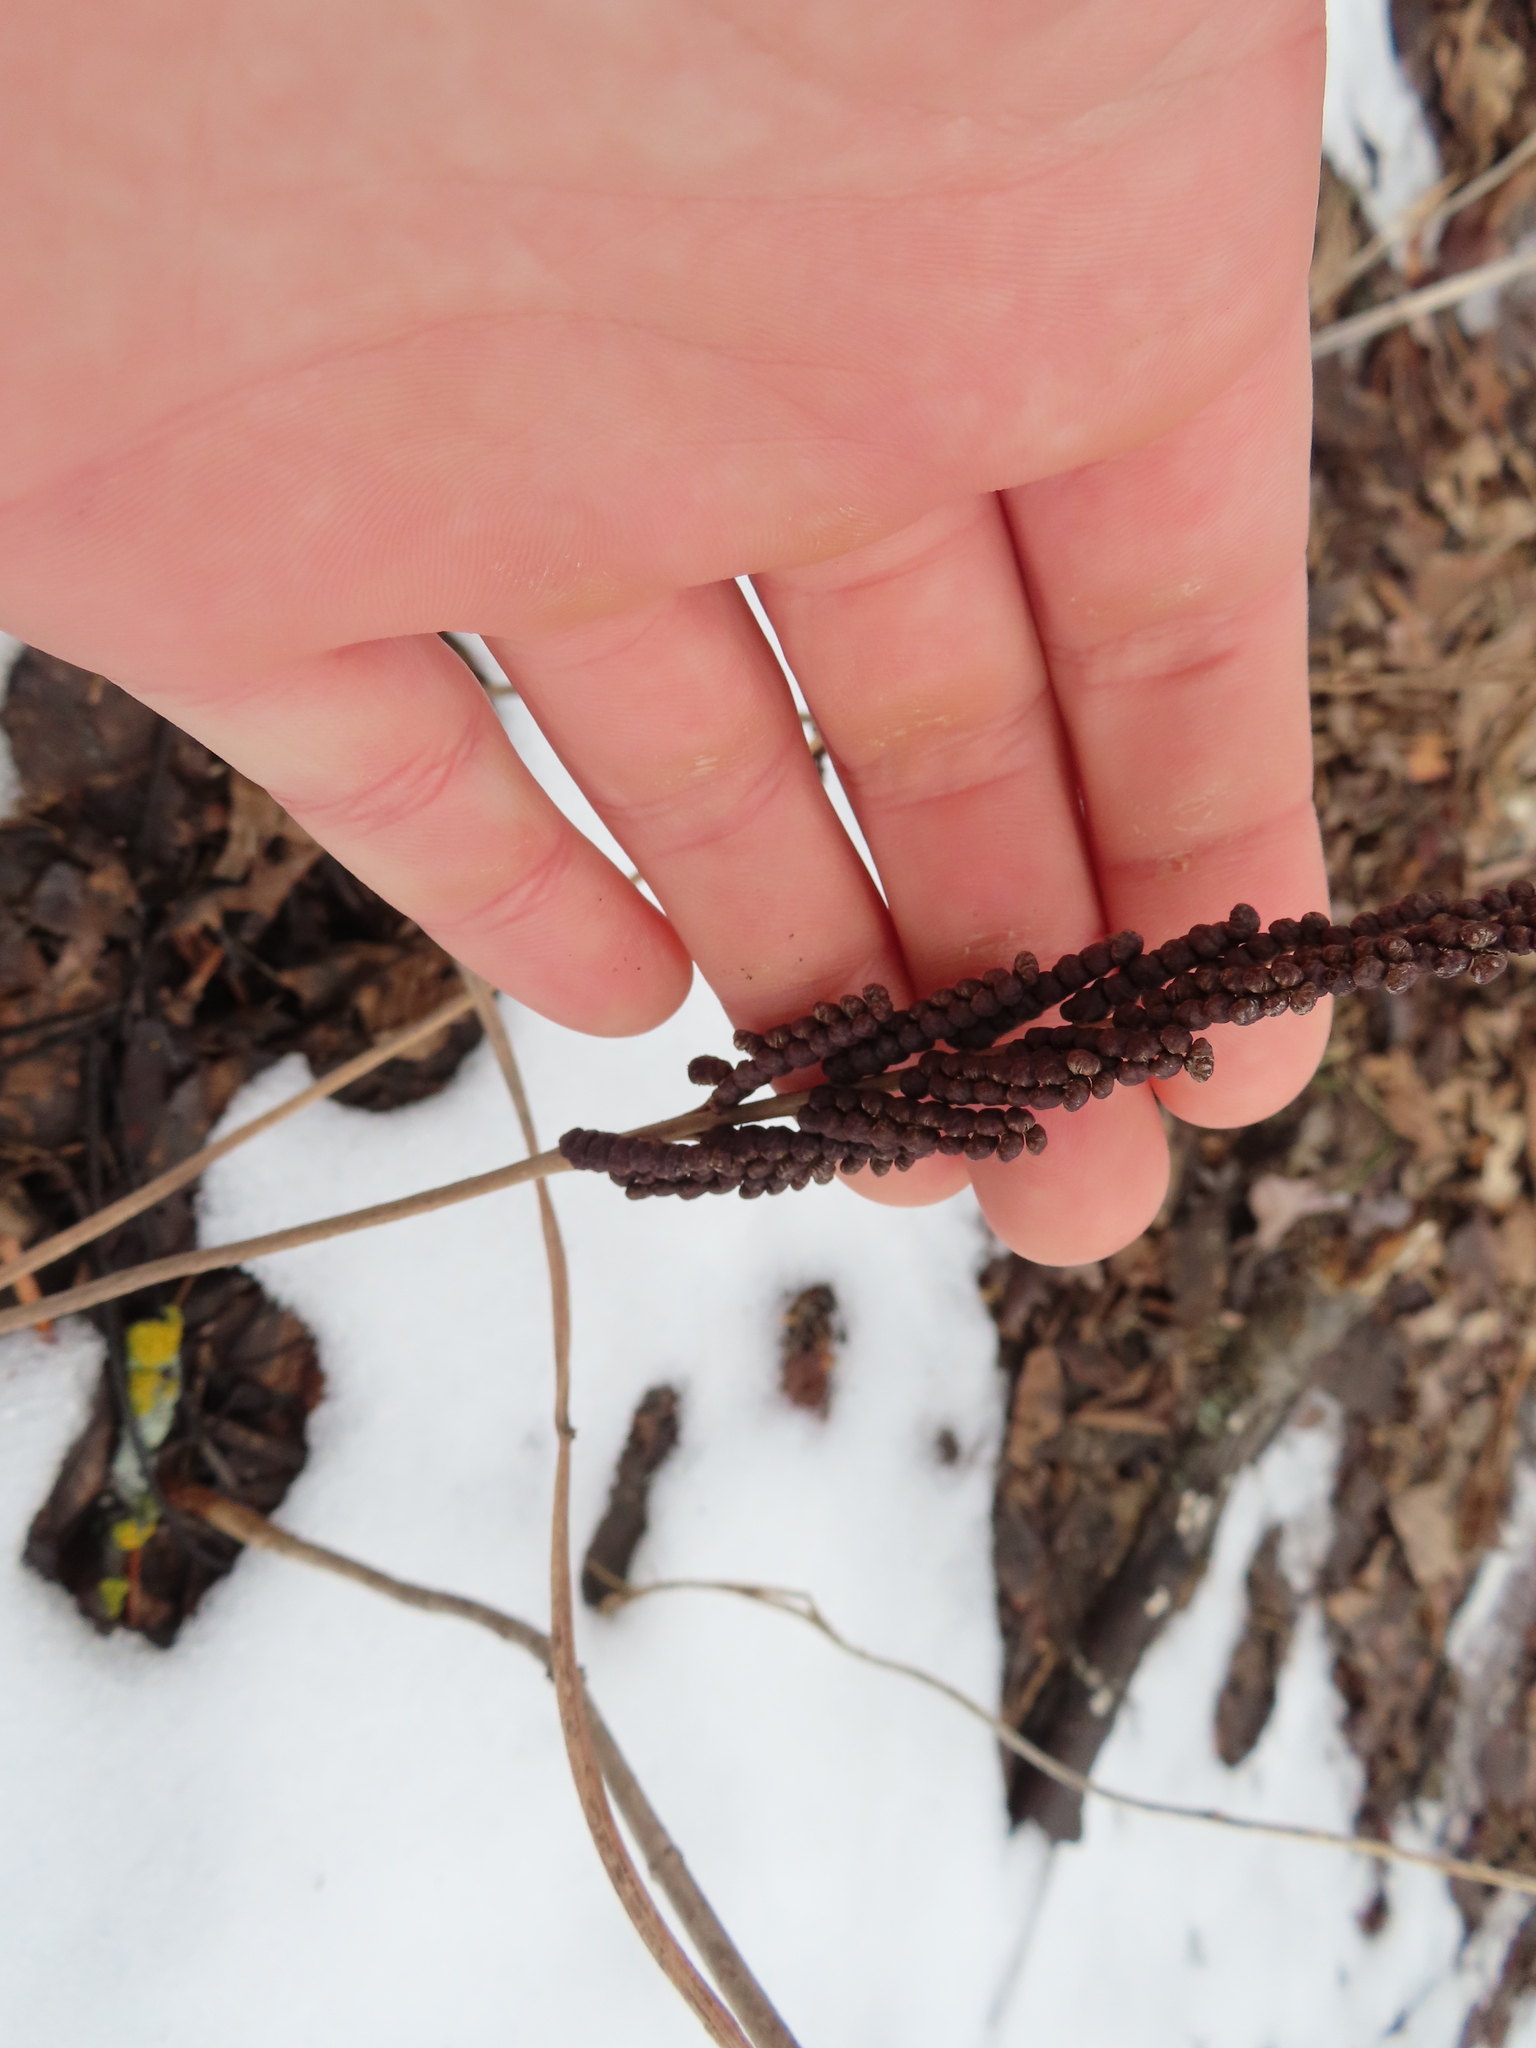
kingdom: Plantae
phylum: Tracheophyta
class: Polypodiopsida
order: Polypodiales
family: Onocleaceae
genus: Onoclea
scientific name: Onoclea sensibilis
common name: Sensitive fern
